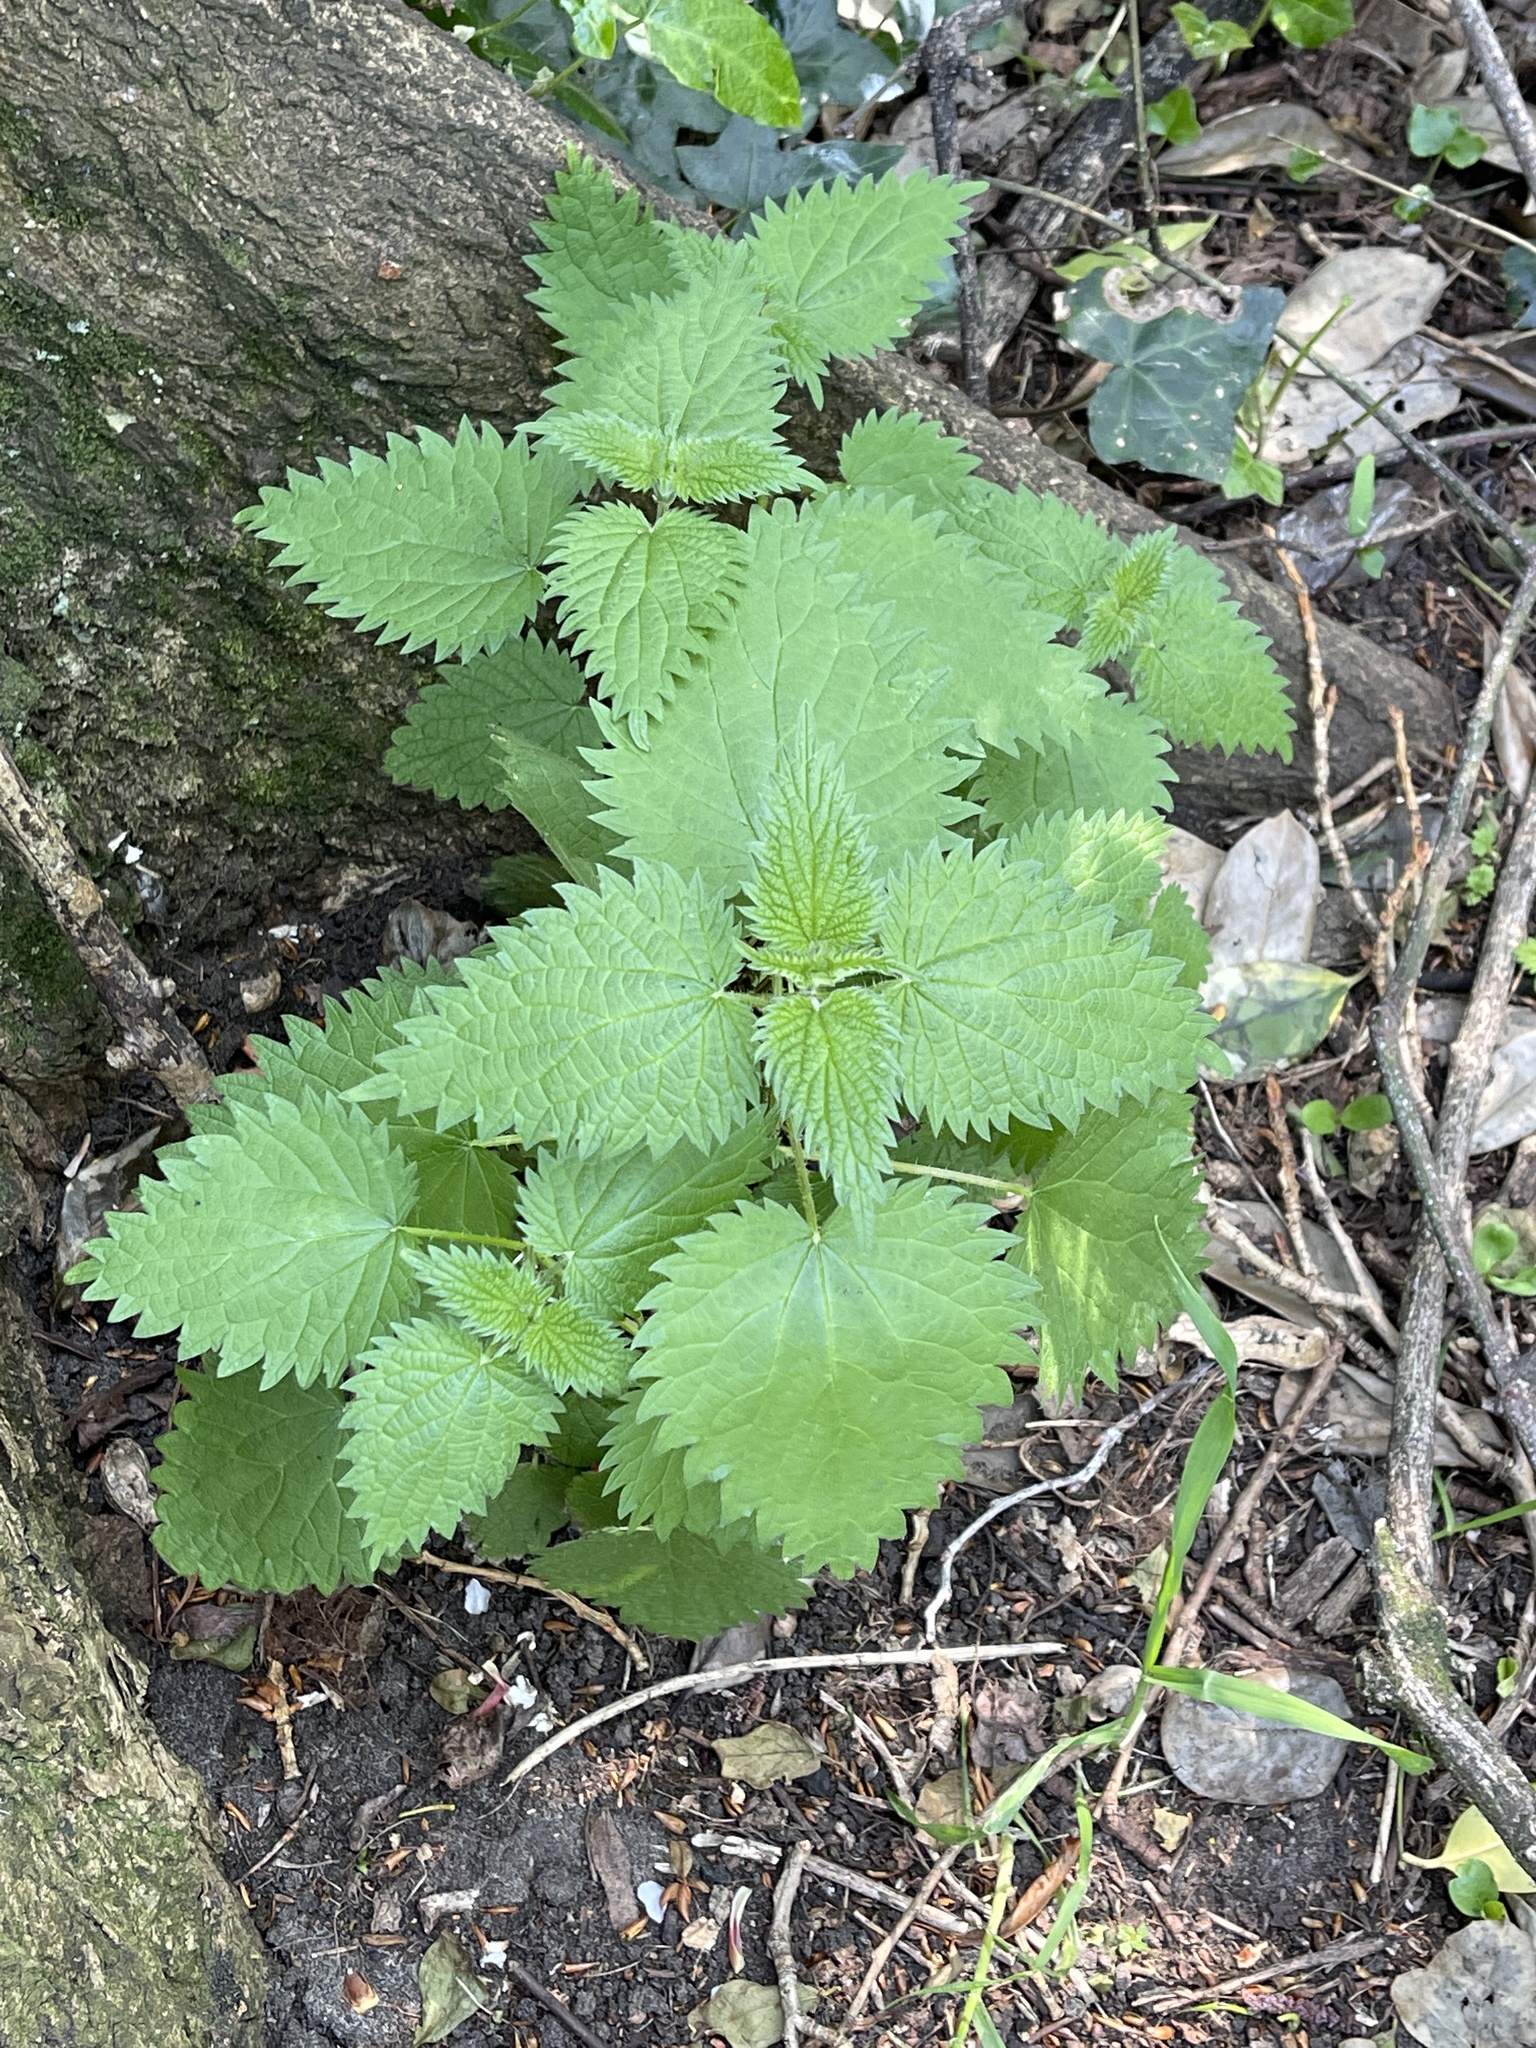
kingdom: Plantae
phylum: Tracheophyta
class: Magnoliopsida
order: Rosales
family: Urticaceae
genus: Urtica
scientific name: Urtica dioica
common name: Common nettle
